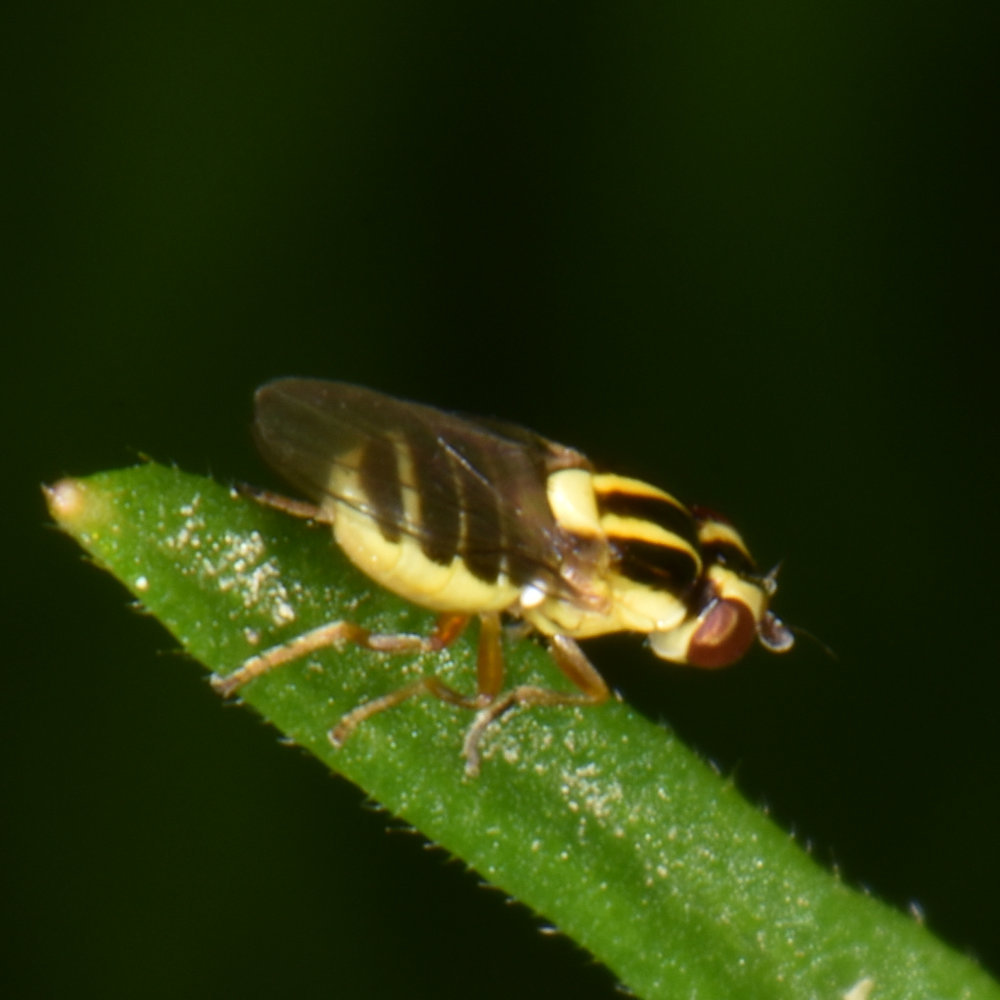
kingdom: Animalia
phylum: Arthropoda
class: Insecta
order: Diptera
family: Chloropidae
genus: Thaumatomyia
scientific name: Thaumatomyia glabra
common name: Chloropid fly
